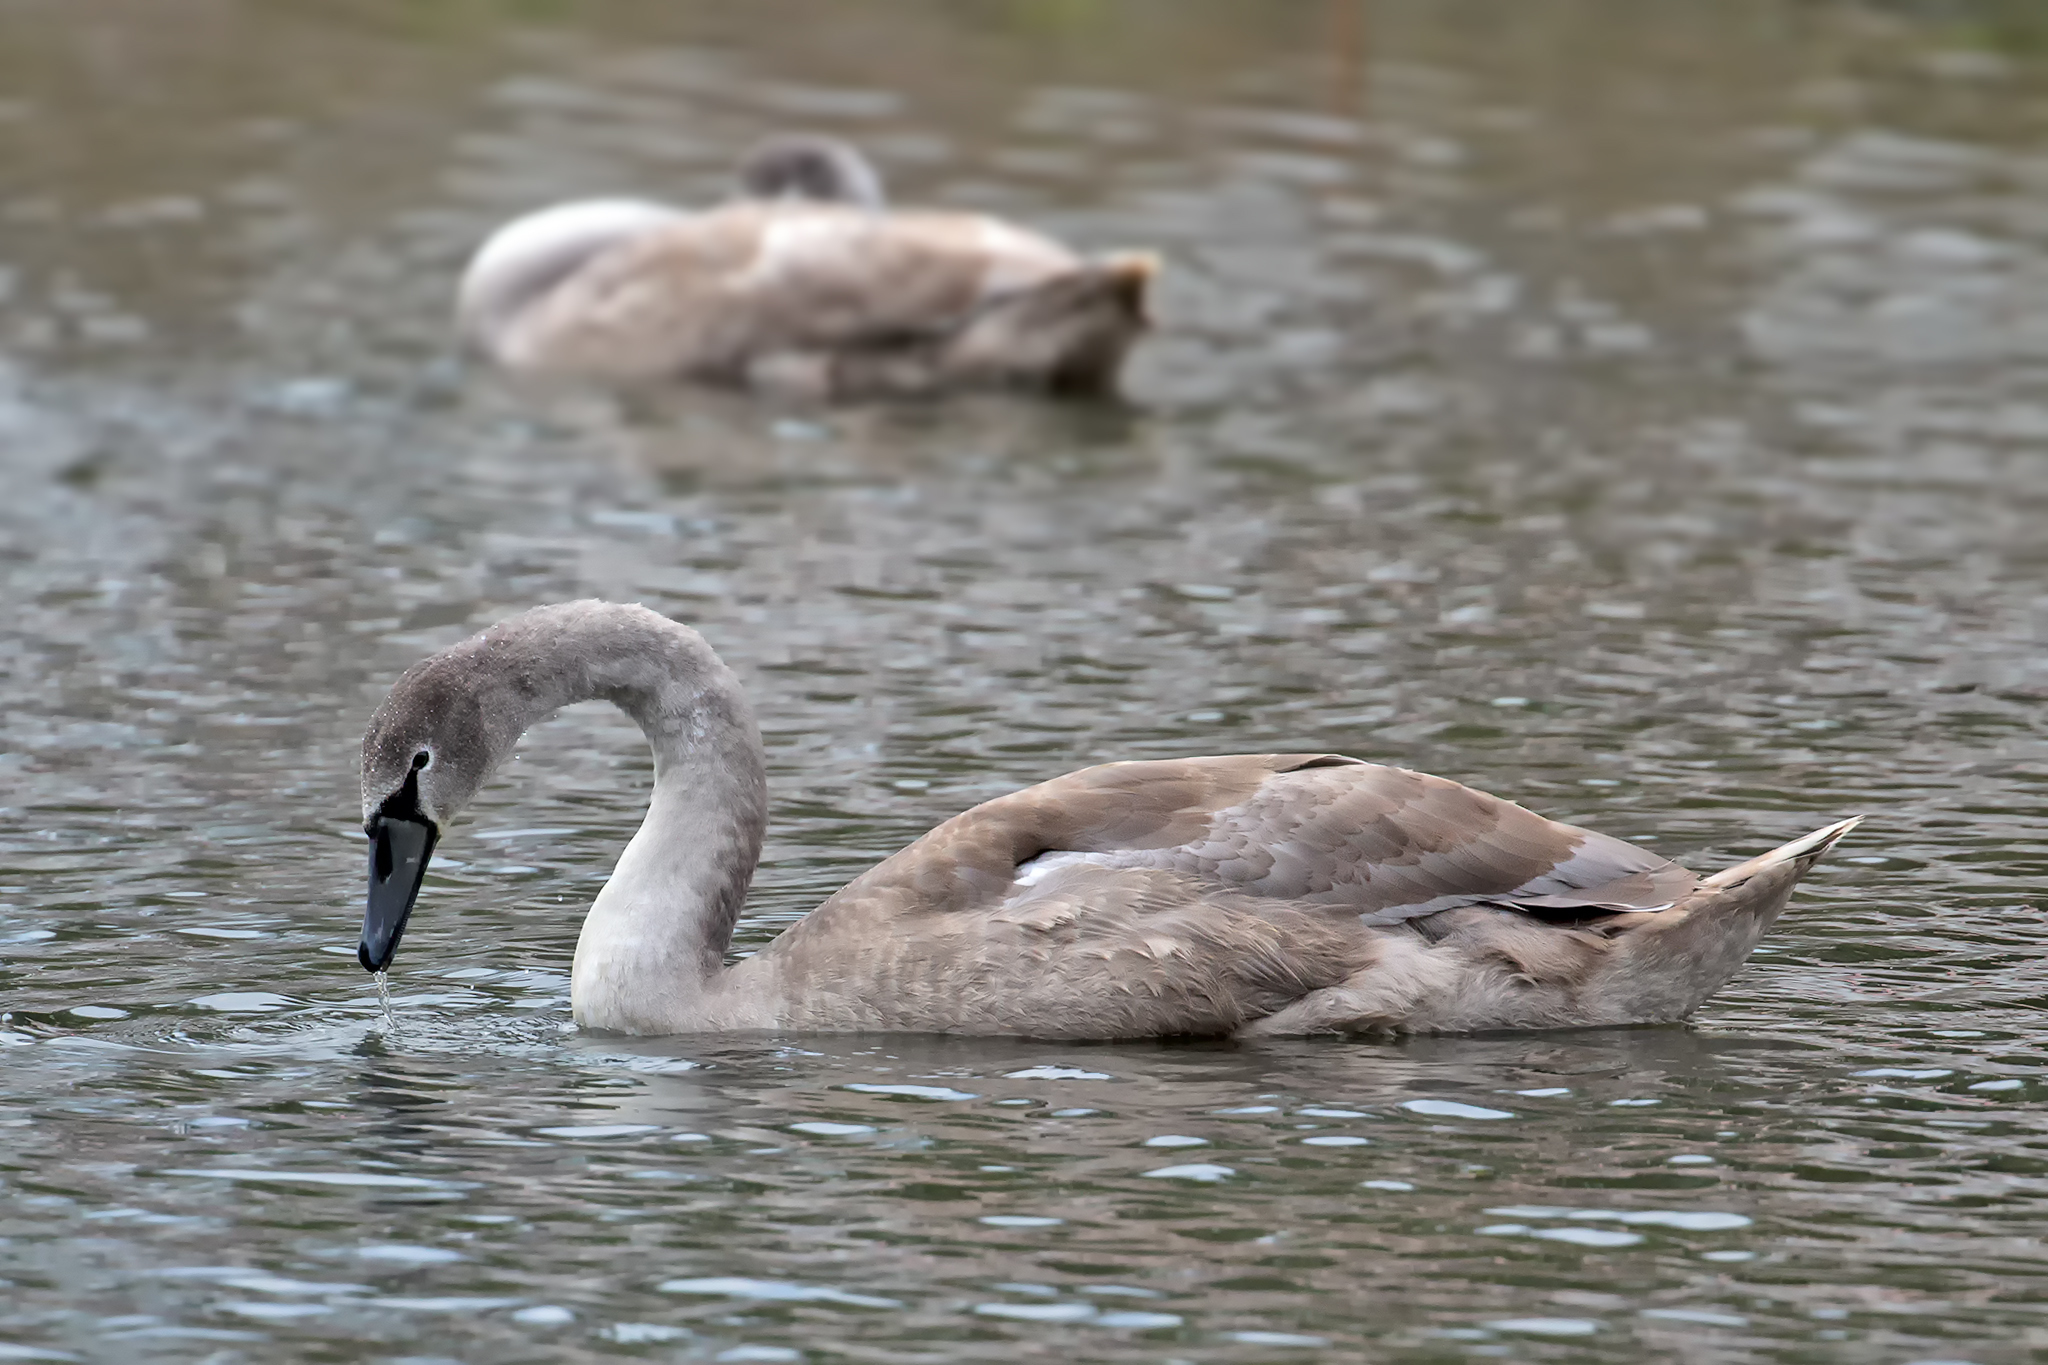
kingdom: Animalia
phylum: Chordata
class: Aves
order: Anseriformes
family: Anatidae
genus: Cygnus
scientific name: Cygnus olor
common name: Mute swan
